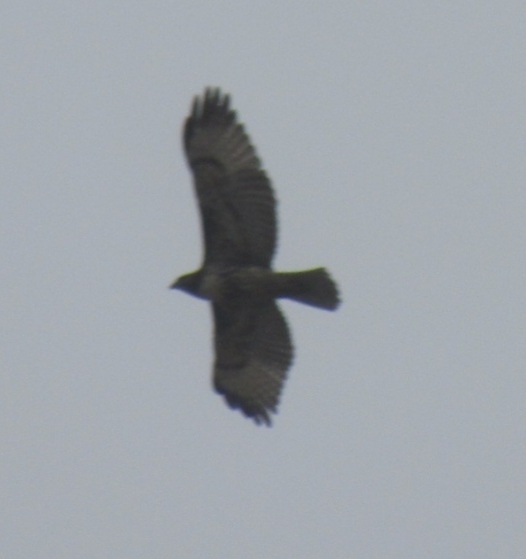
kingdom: Animalia
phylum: Chordata
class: Aves
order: Accipitriformes
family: Accipitridae
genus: Buteo
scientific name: Buteo jamaicensis
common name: Red-tailed hawk
